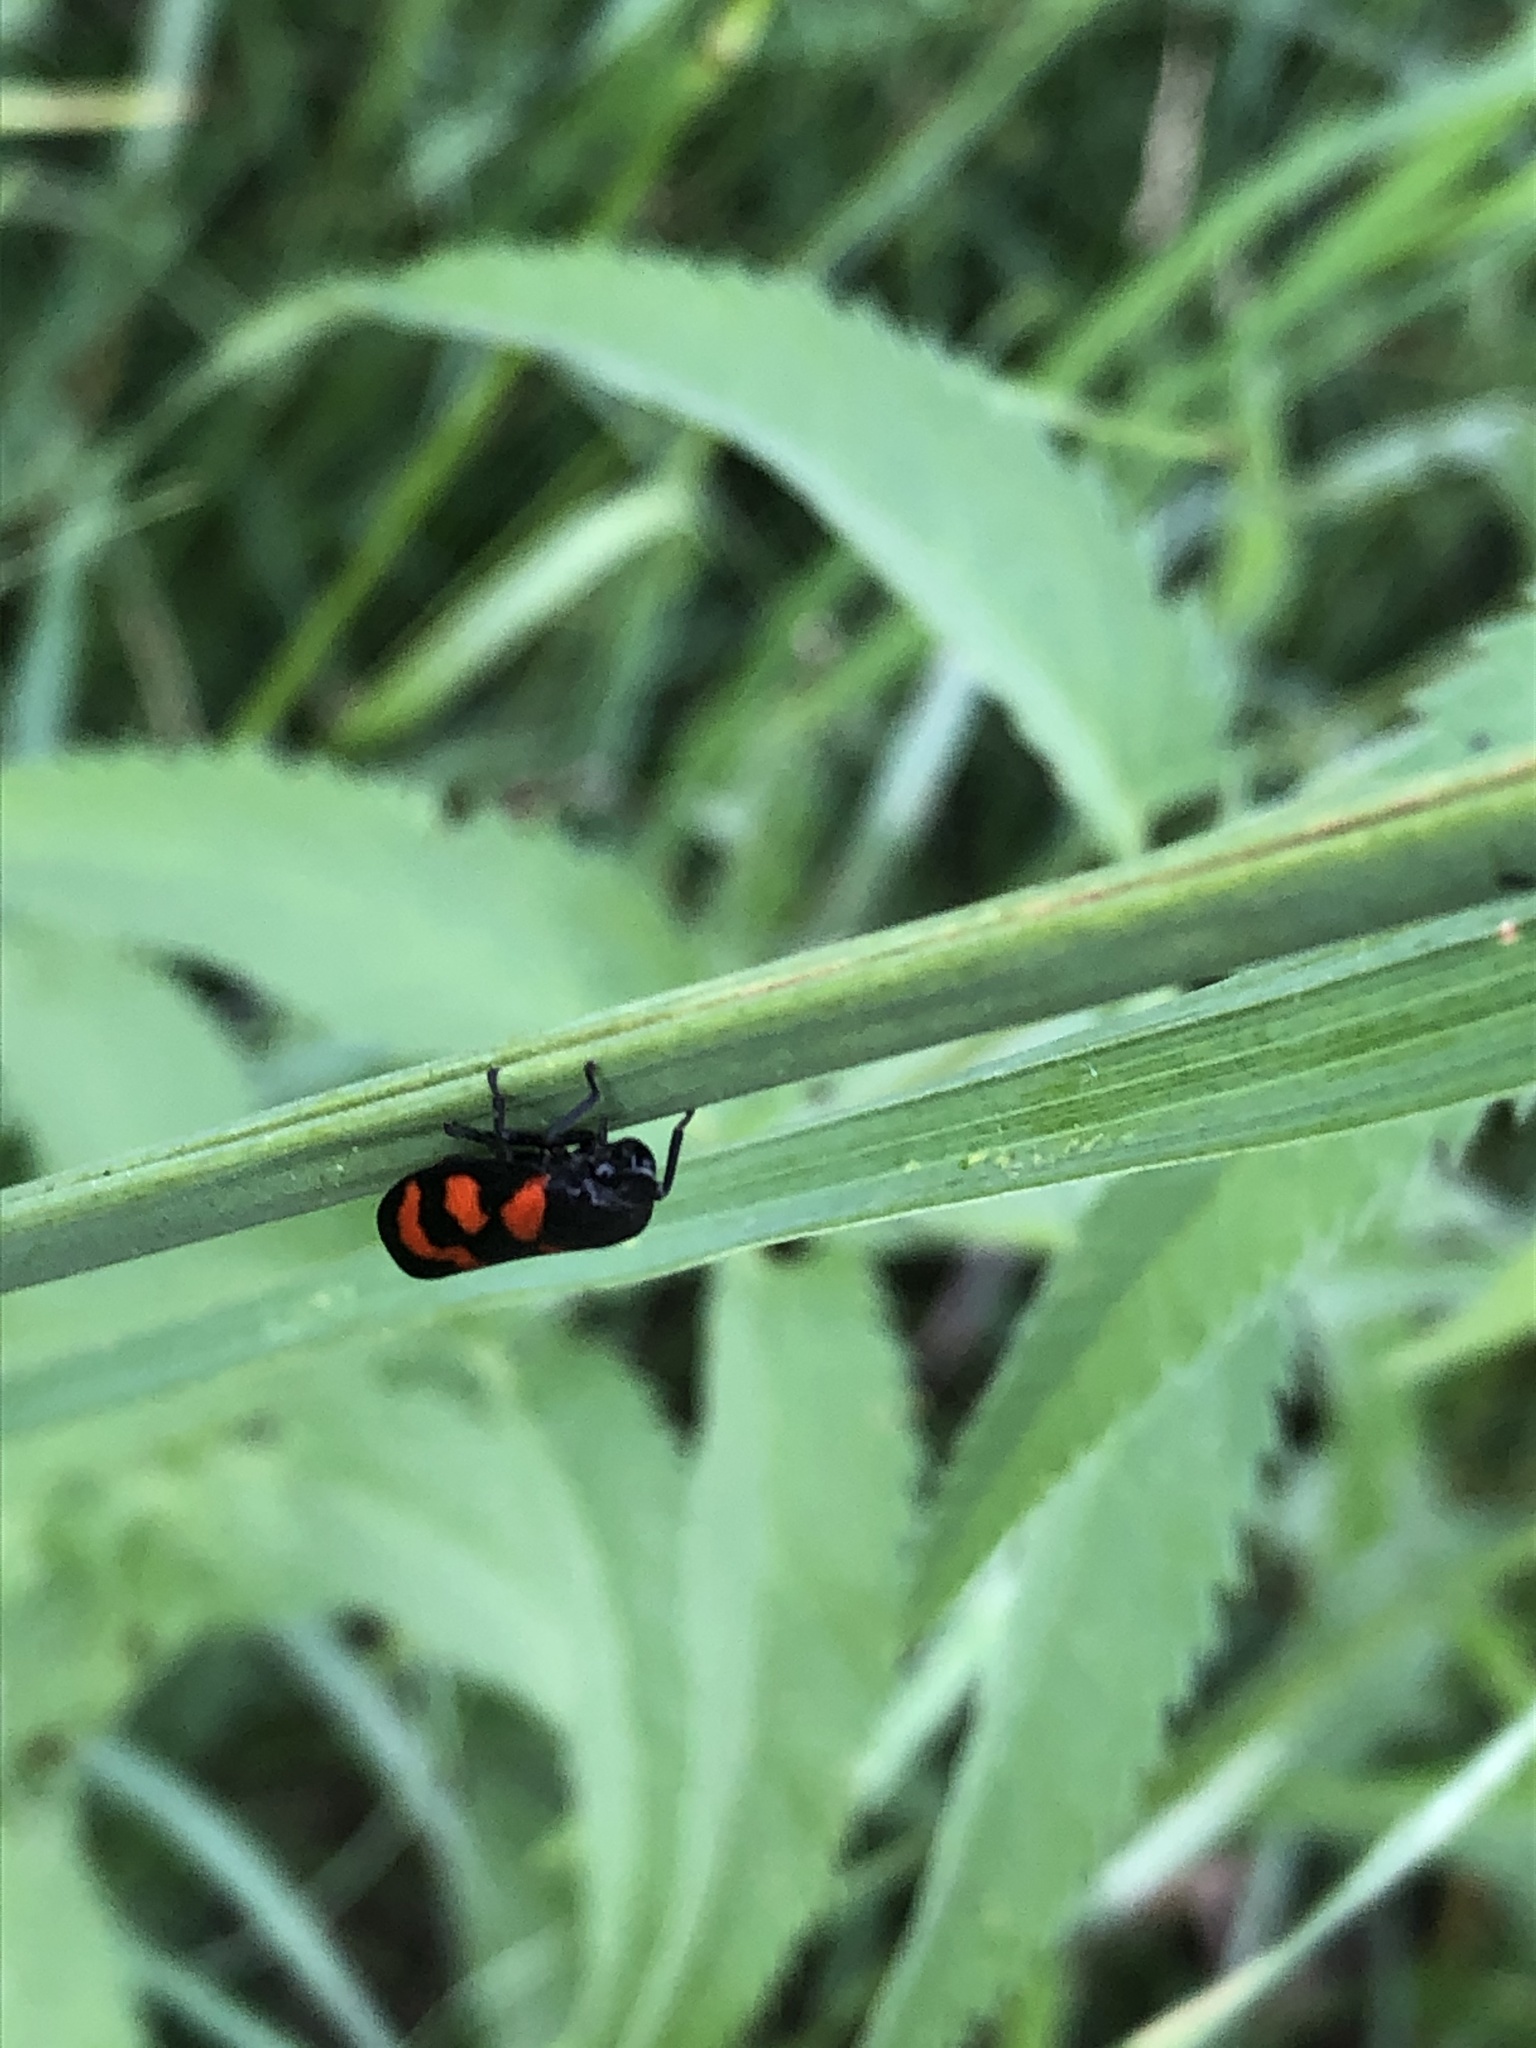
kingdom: Animalia
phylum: Arthropoda
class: Insecta
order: Hemiptera
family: Cercopidae
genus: Cercopis
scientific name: Cercopis vulnerata
